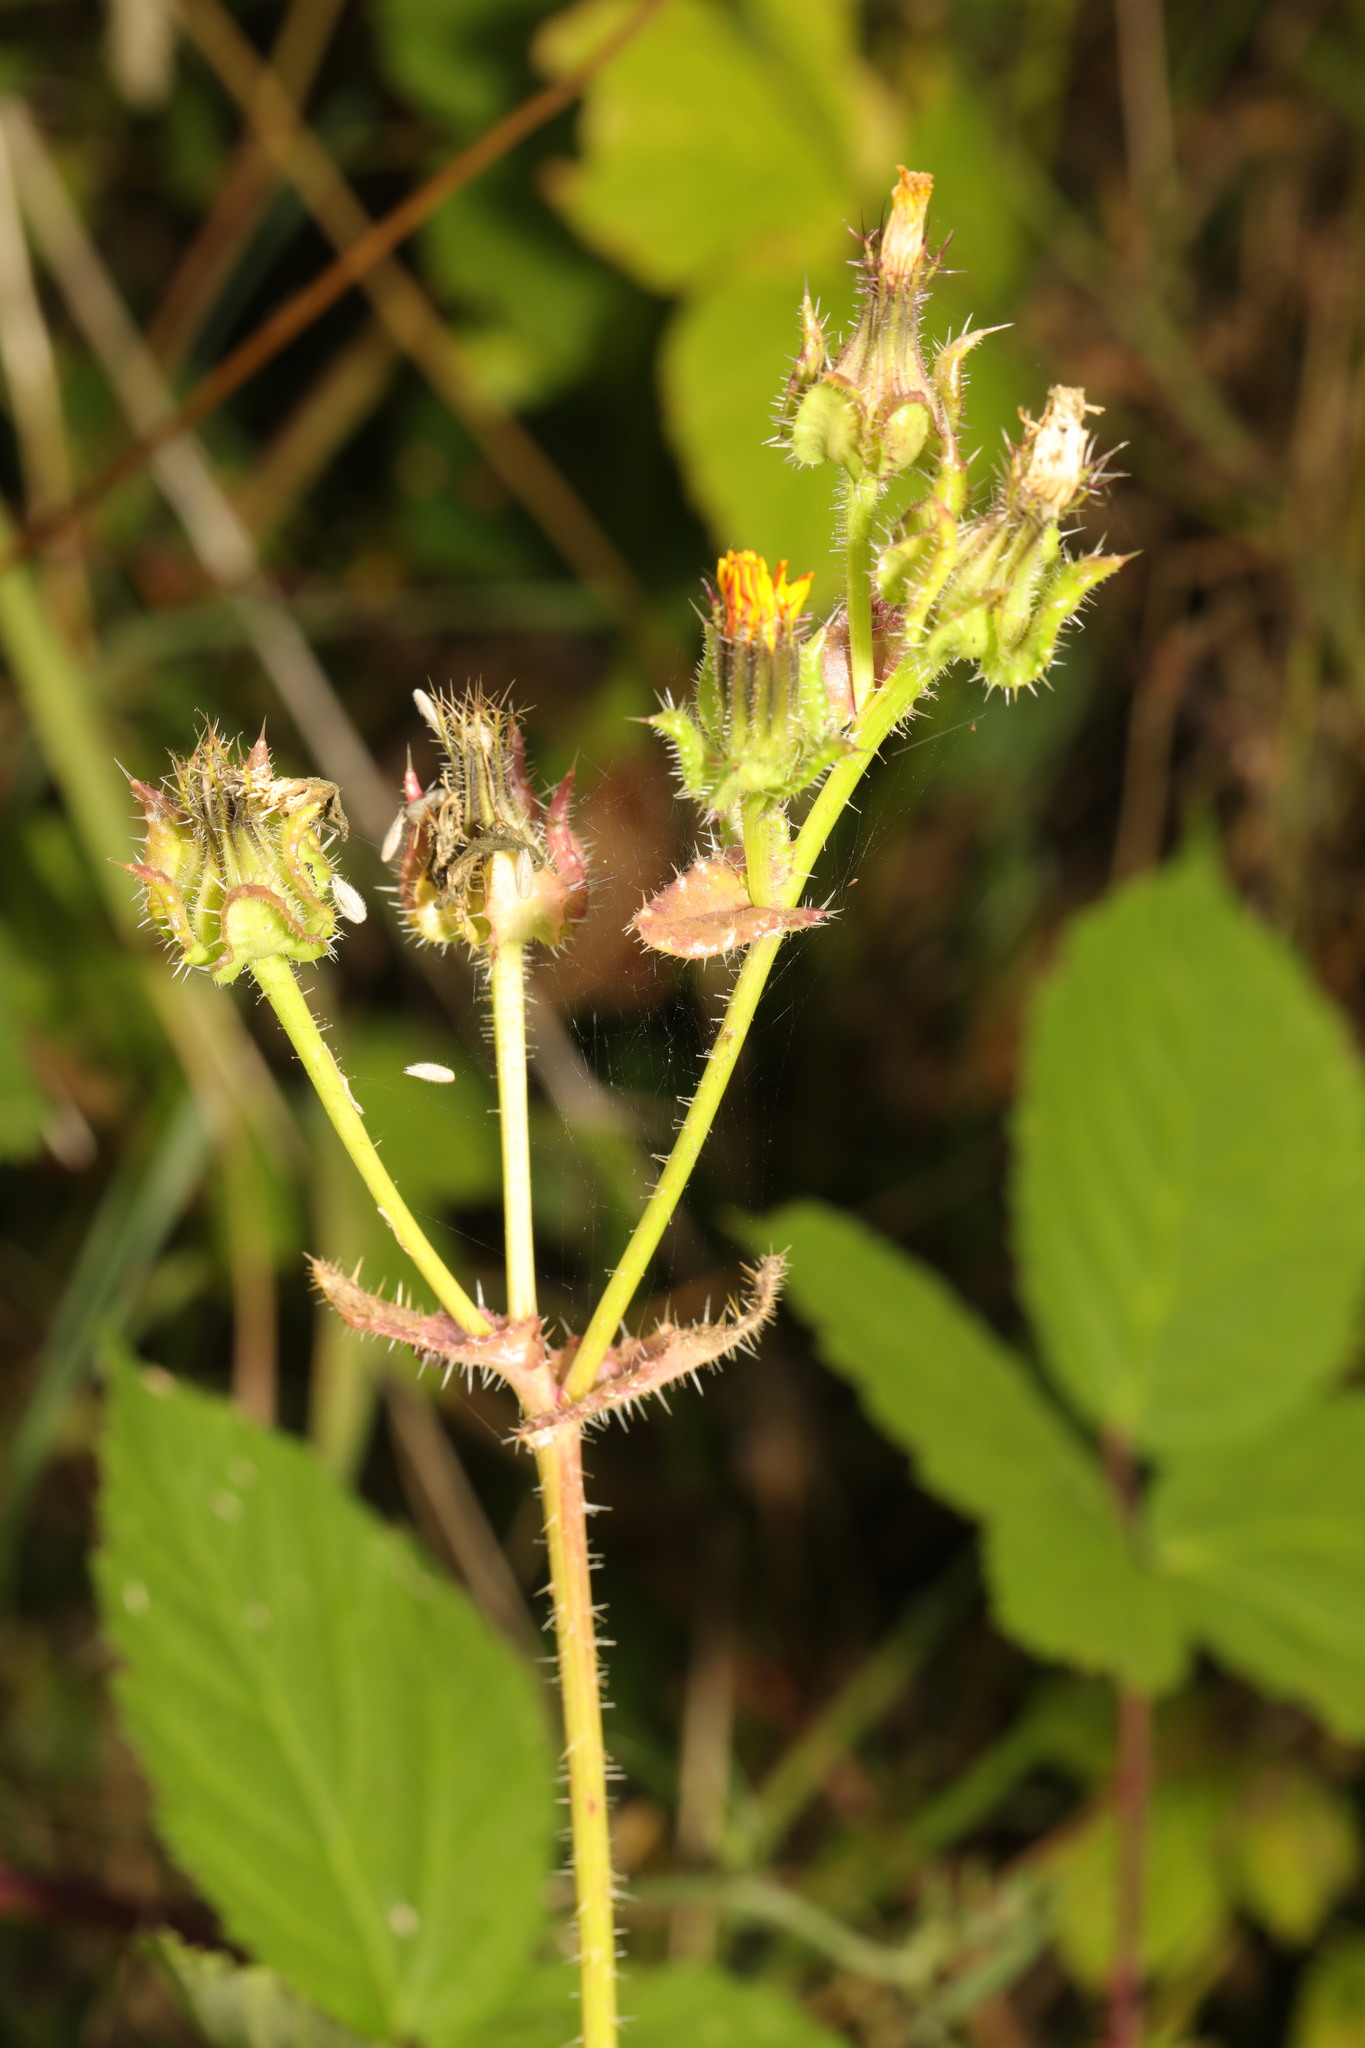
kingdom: Plantae
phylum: Tracheophyta
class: Magnoliopsida
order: Asterales
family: Asteraceae
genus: Helminthotheca
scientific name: Helminthotheca echioides
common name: Ox-tongue
